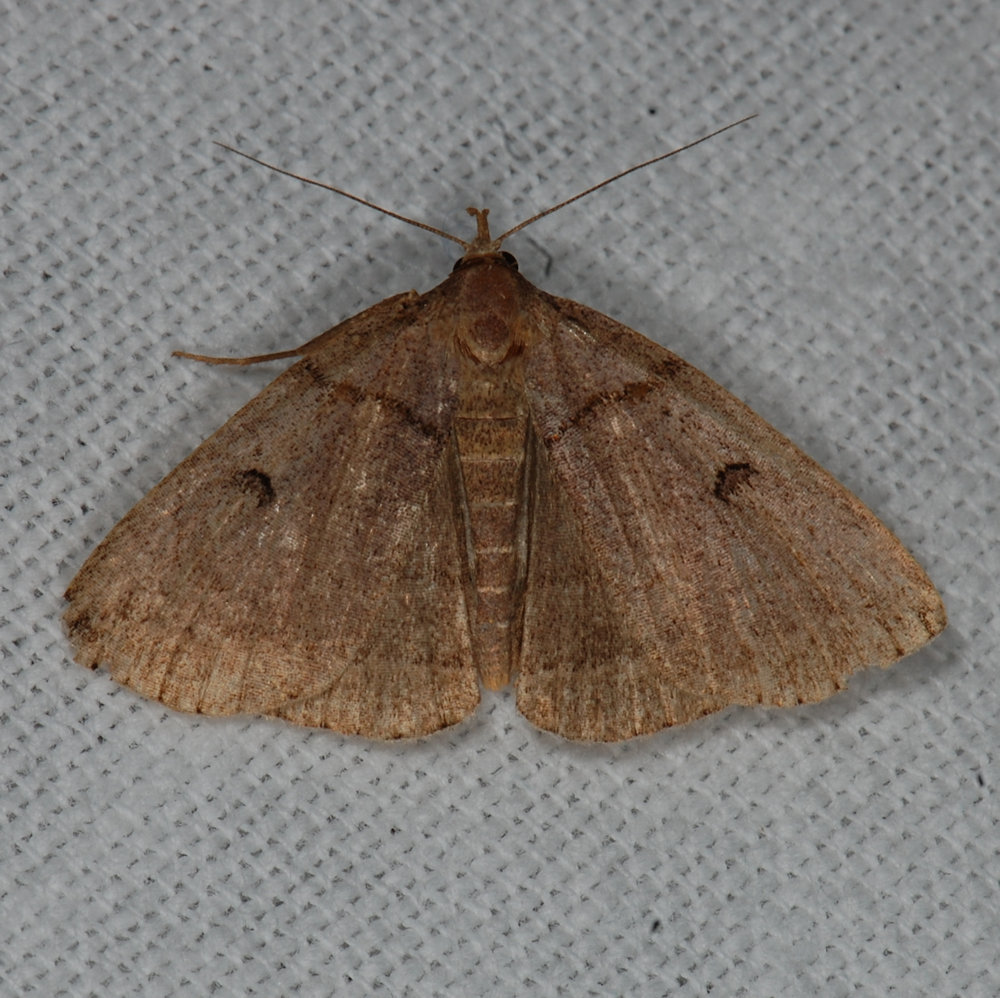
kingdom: Animalia
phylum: Arthropoda
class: Insecta
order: Lepidoptera
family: Erebidae
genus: Zanclognatha
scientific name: Zanclognatha laevigata
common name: Variable fan-foot
